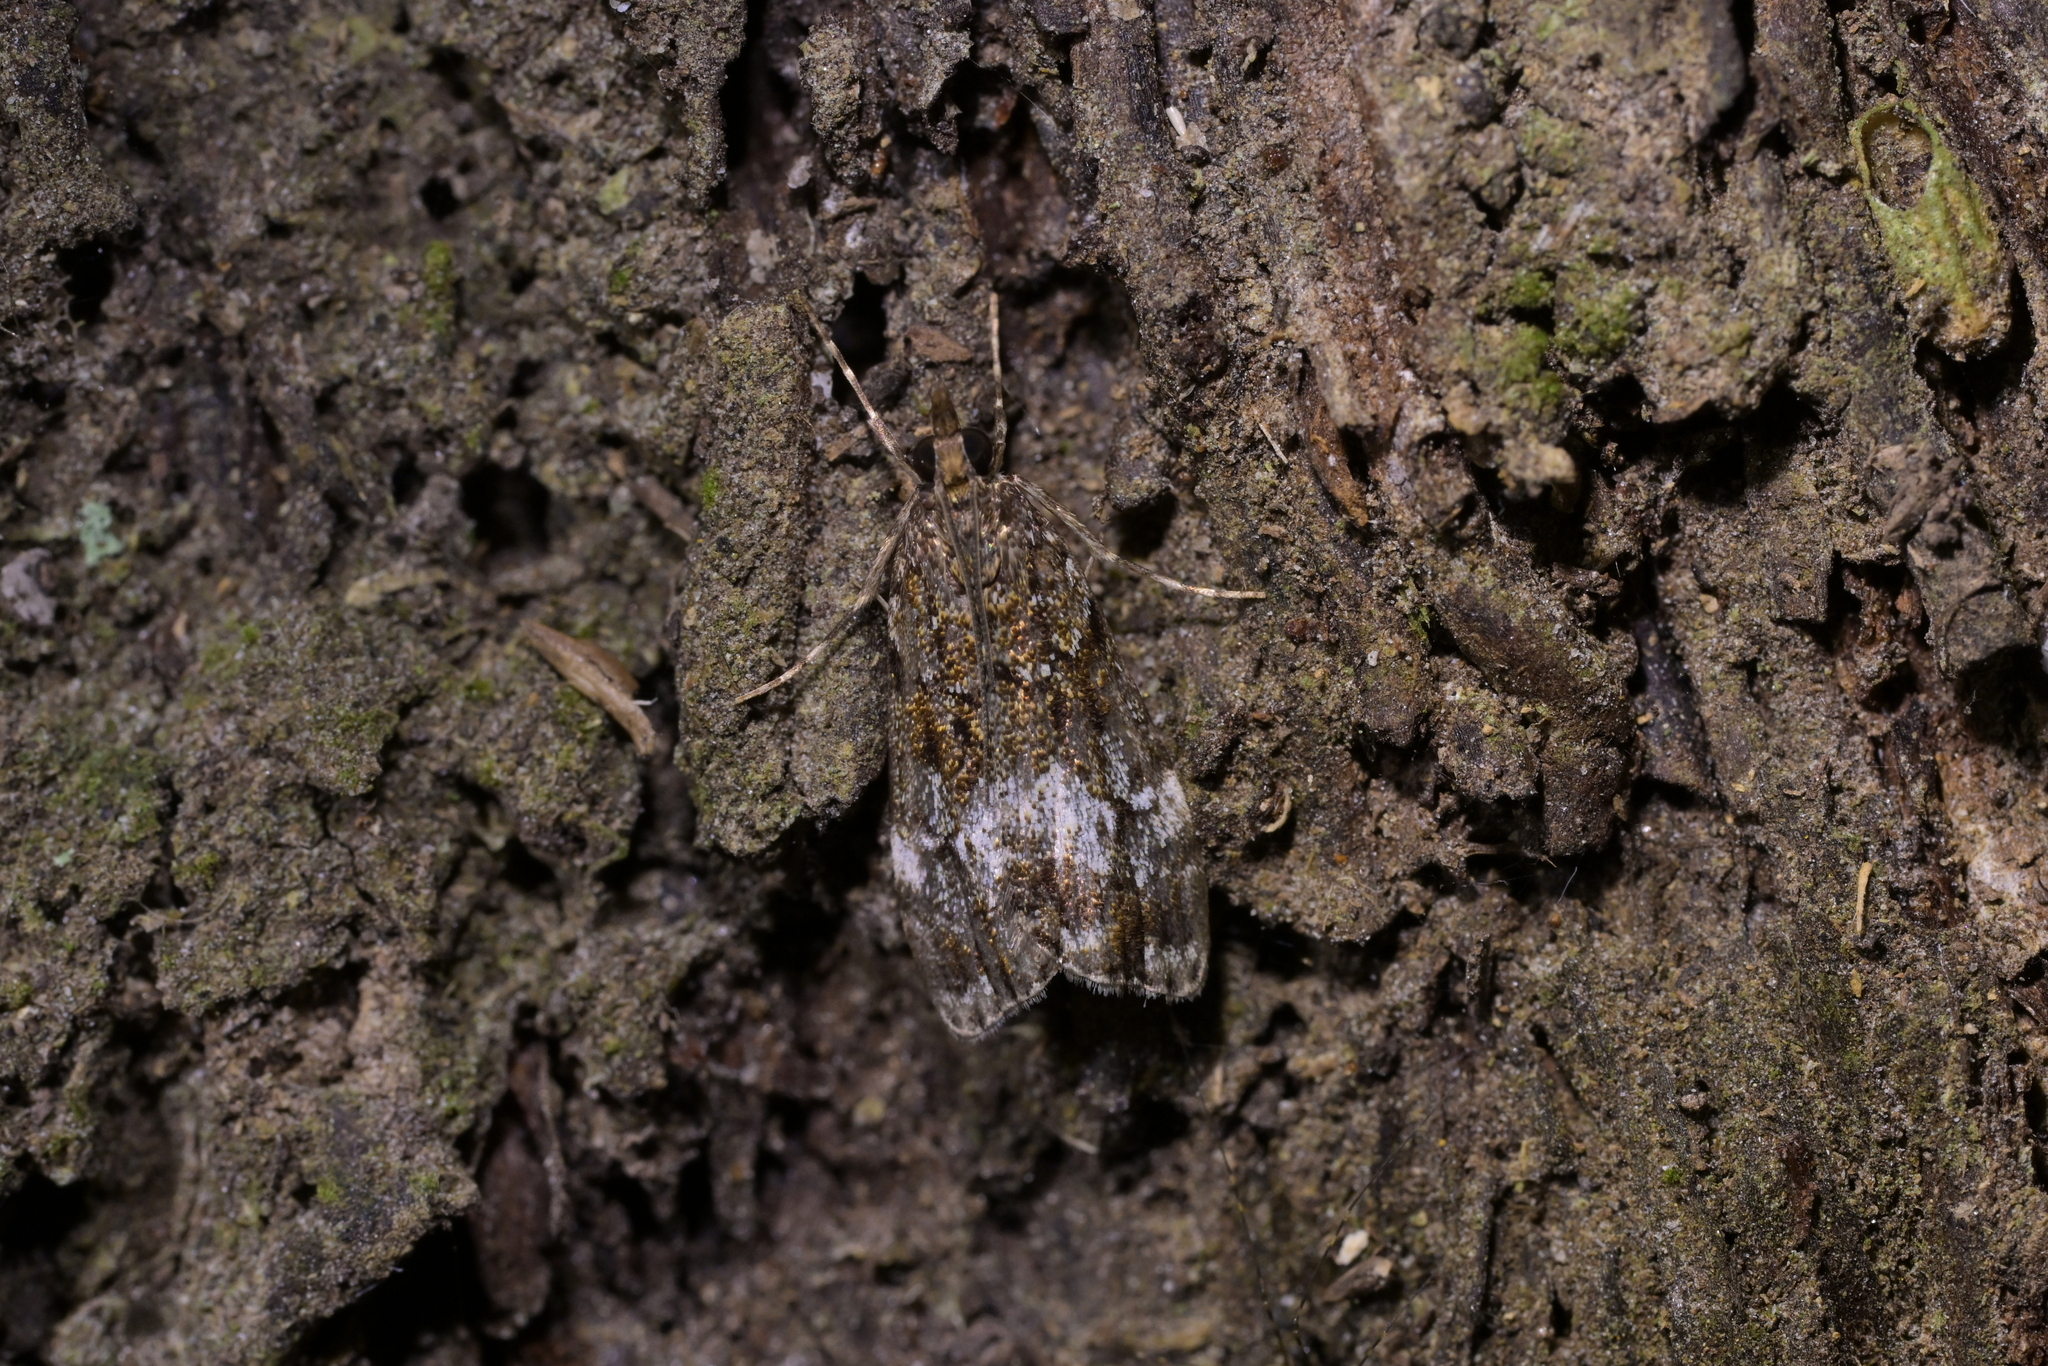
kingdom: Animalia
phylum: Arthropoda
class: Insecta
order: Lepidoptera
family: Crambidae
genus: Eudonia
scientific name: Eudonia dinodes
